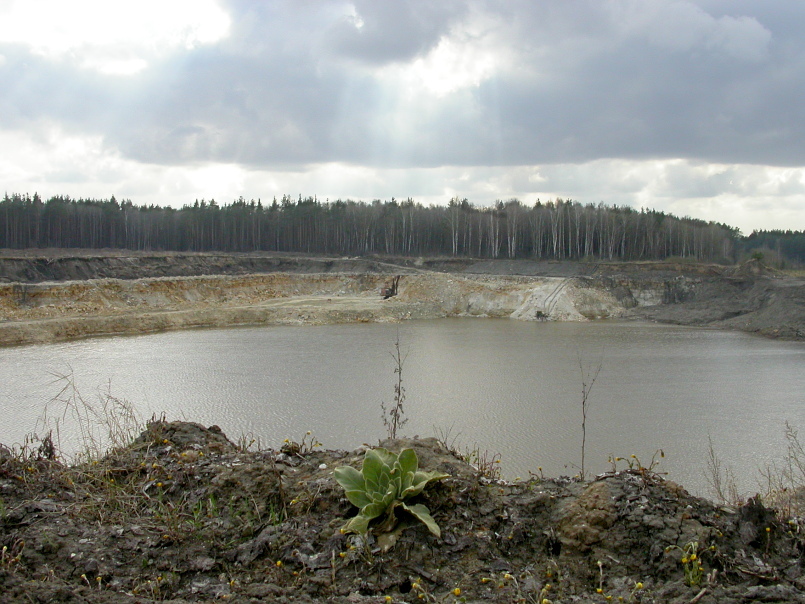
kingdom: Plantae
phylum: Tracheophyta
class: Magnoliopsida
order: Lamiales
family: Scrophulariaceae
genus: Verbascum
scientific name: Verbascum thapsus
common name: Common mullein
